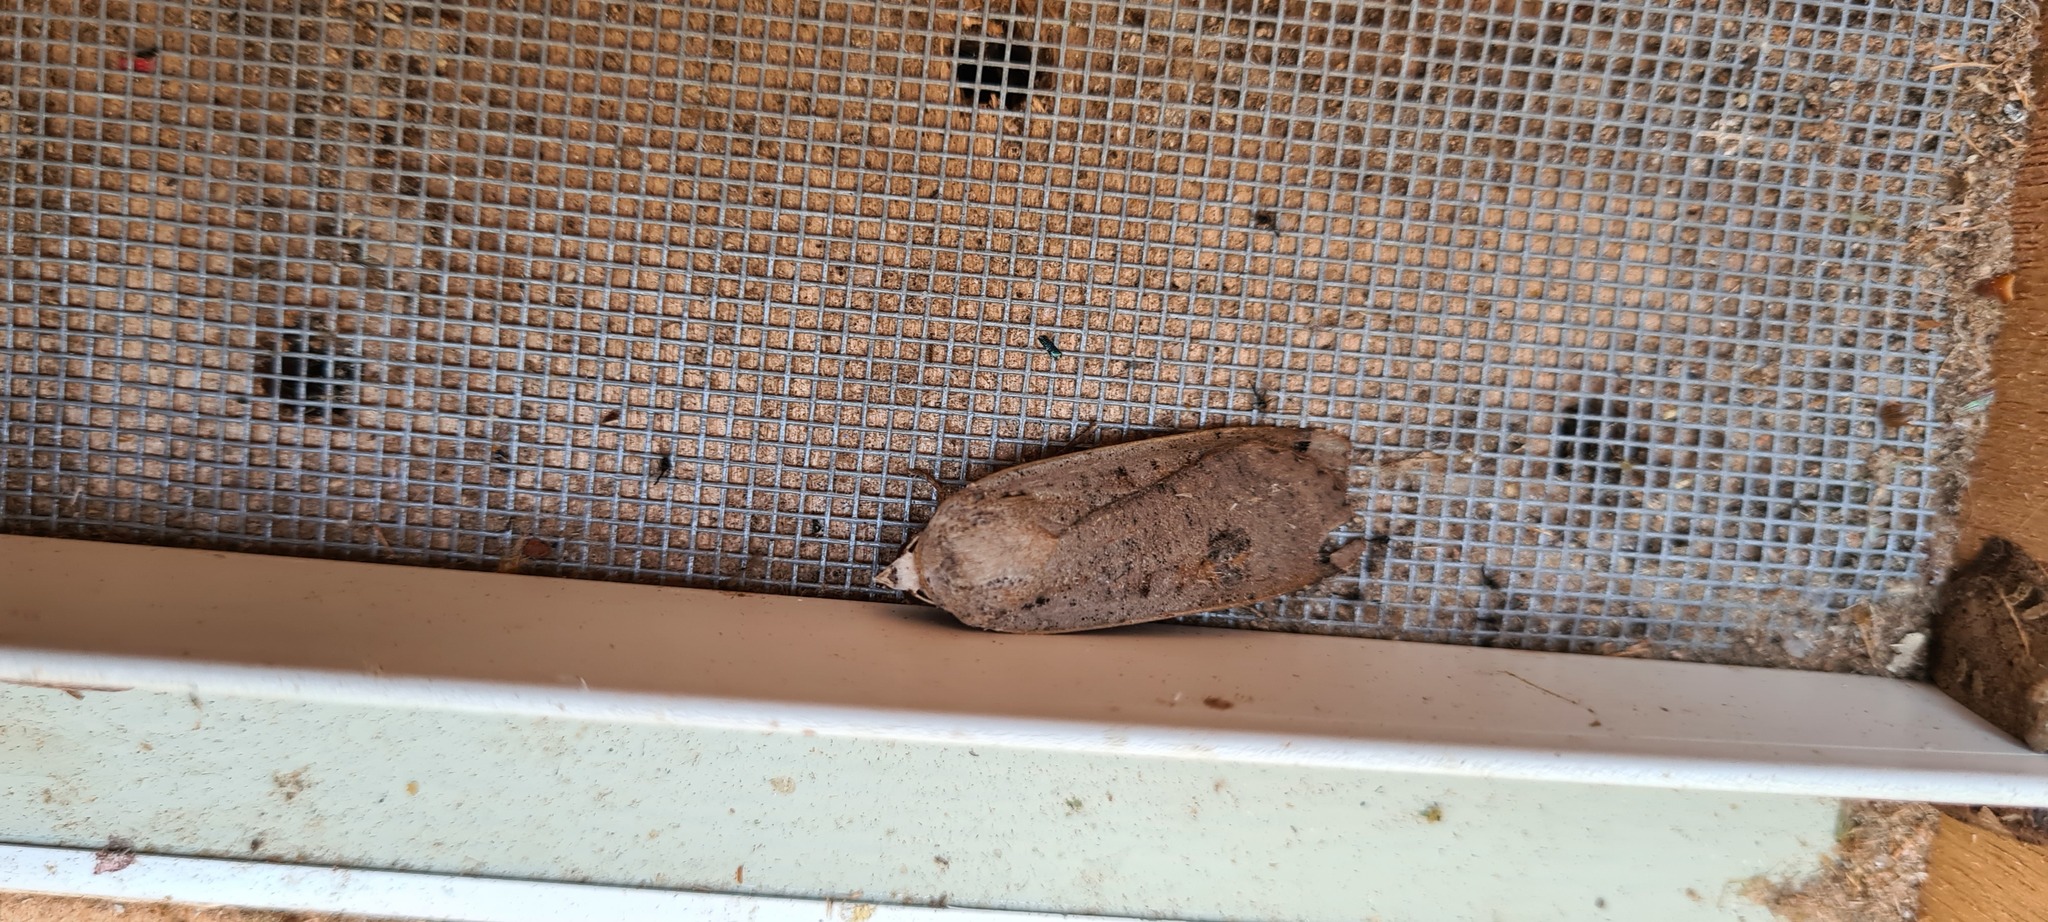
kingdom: Animalia
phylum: Arthropoda
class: Insecta
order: Lepidoptera
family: Noctuidae
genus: Noctua
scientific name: Noctua pronuba
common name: Large yellow underwing
